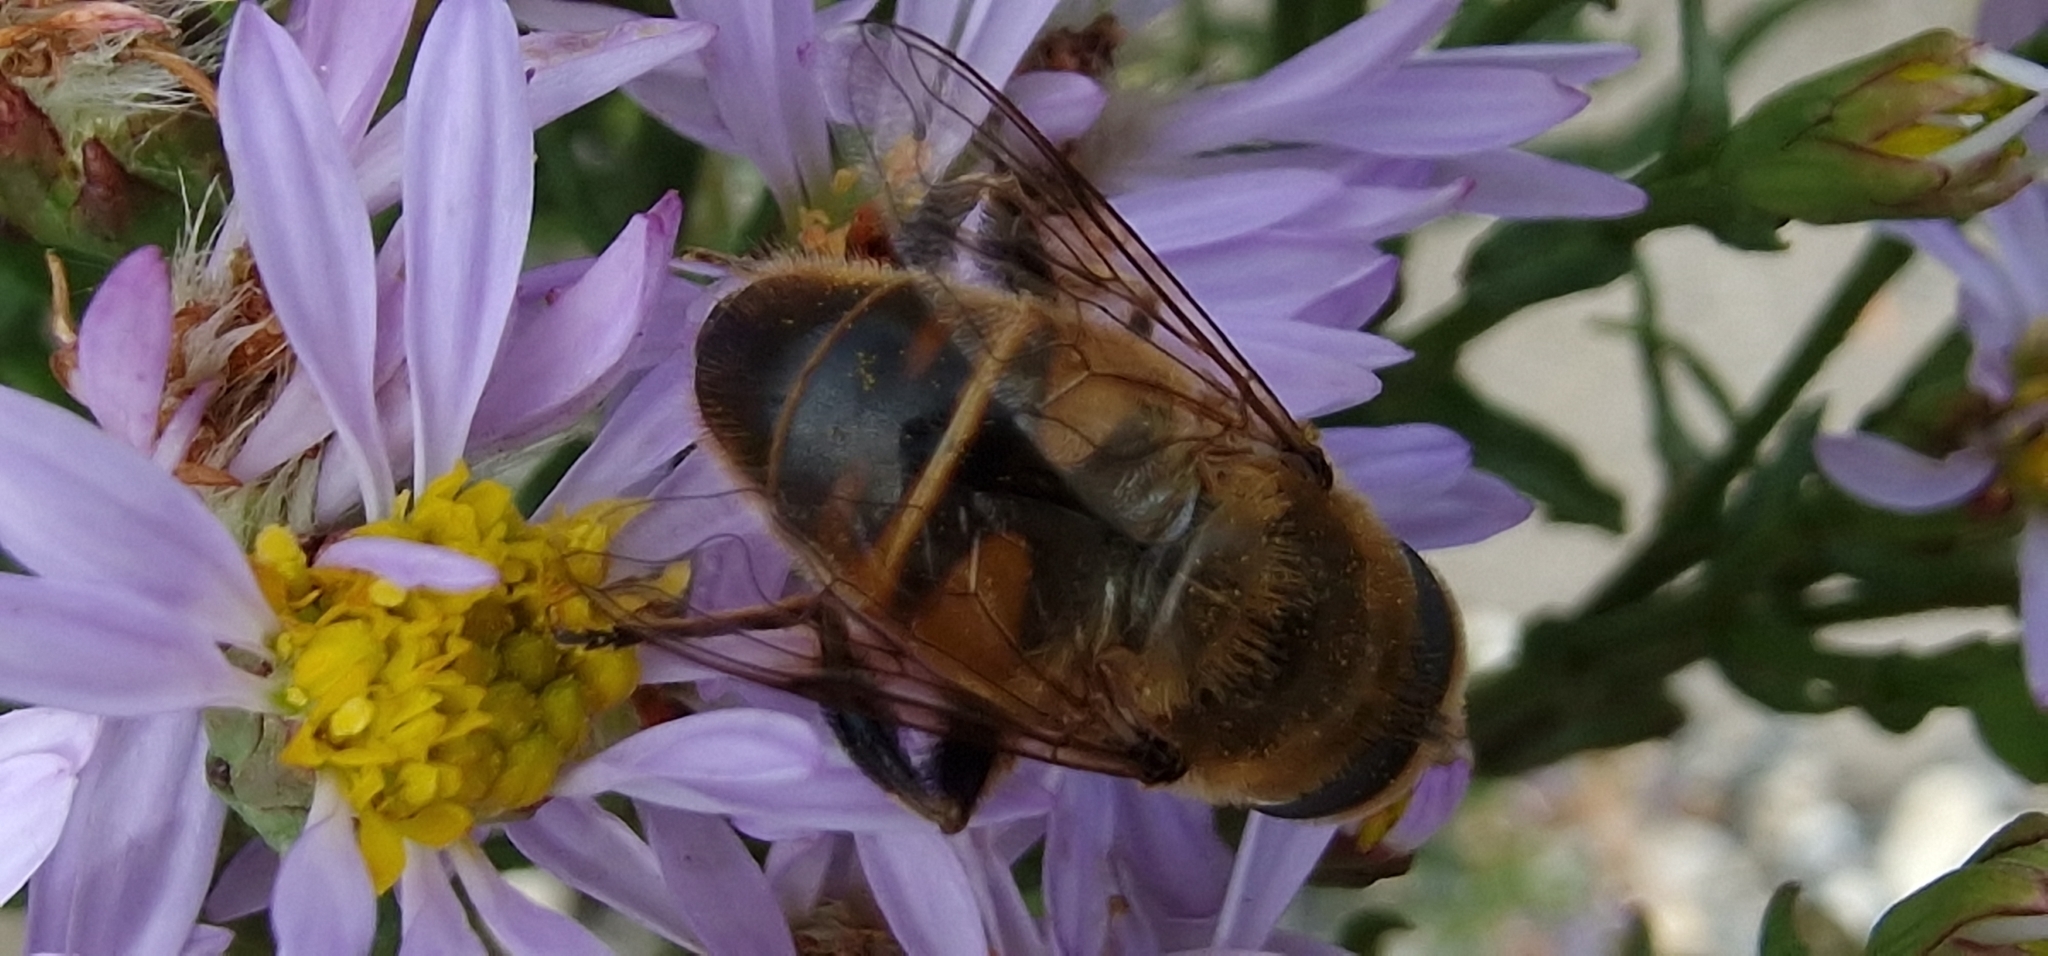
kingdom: Animalia
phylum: Arthropoda
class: Insecta
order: Diptera
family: Syrphidae
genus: Eristalis
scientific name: Eristalis tenax
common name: Drone fly
